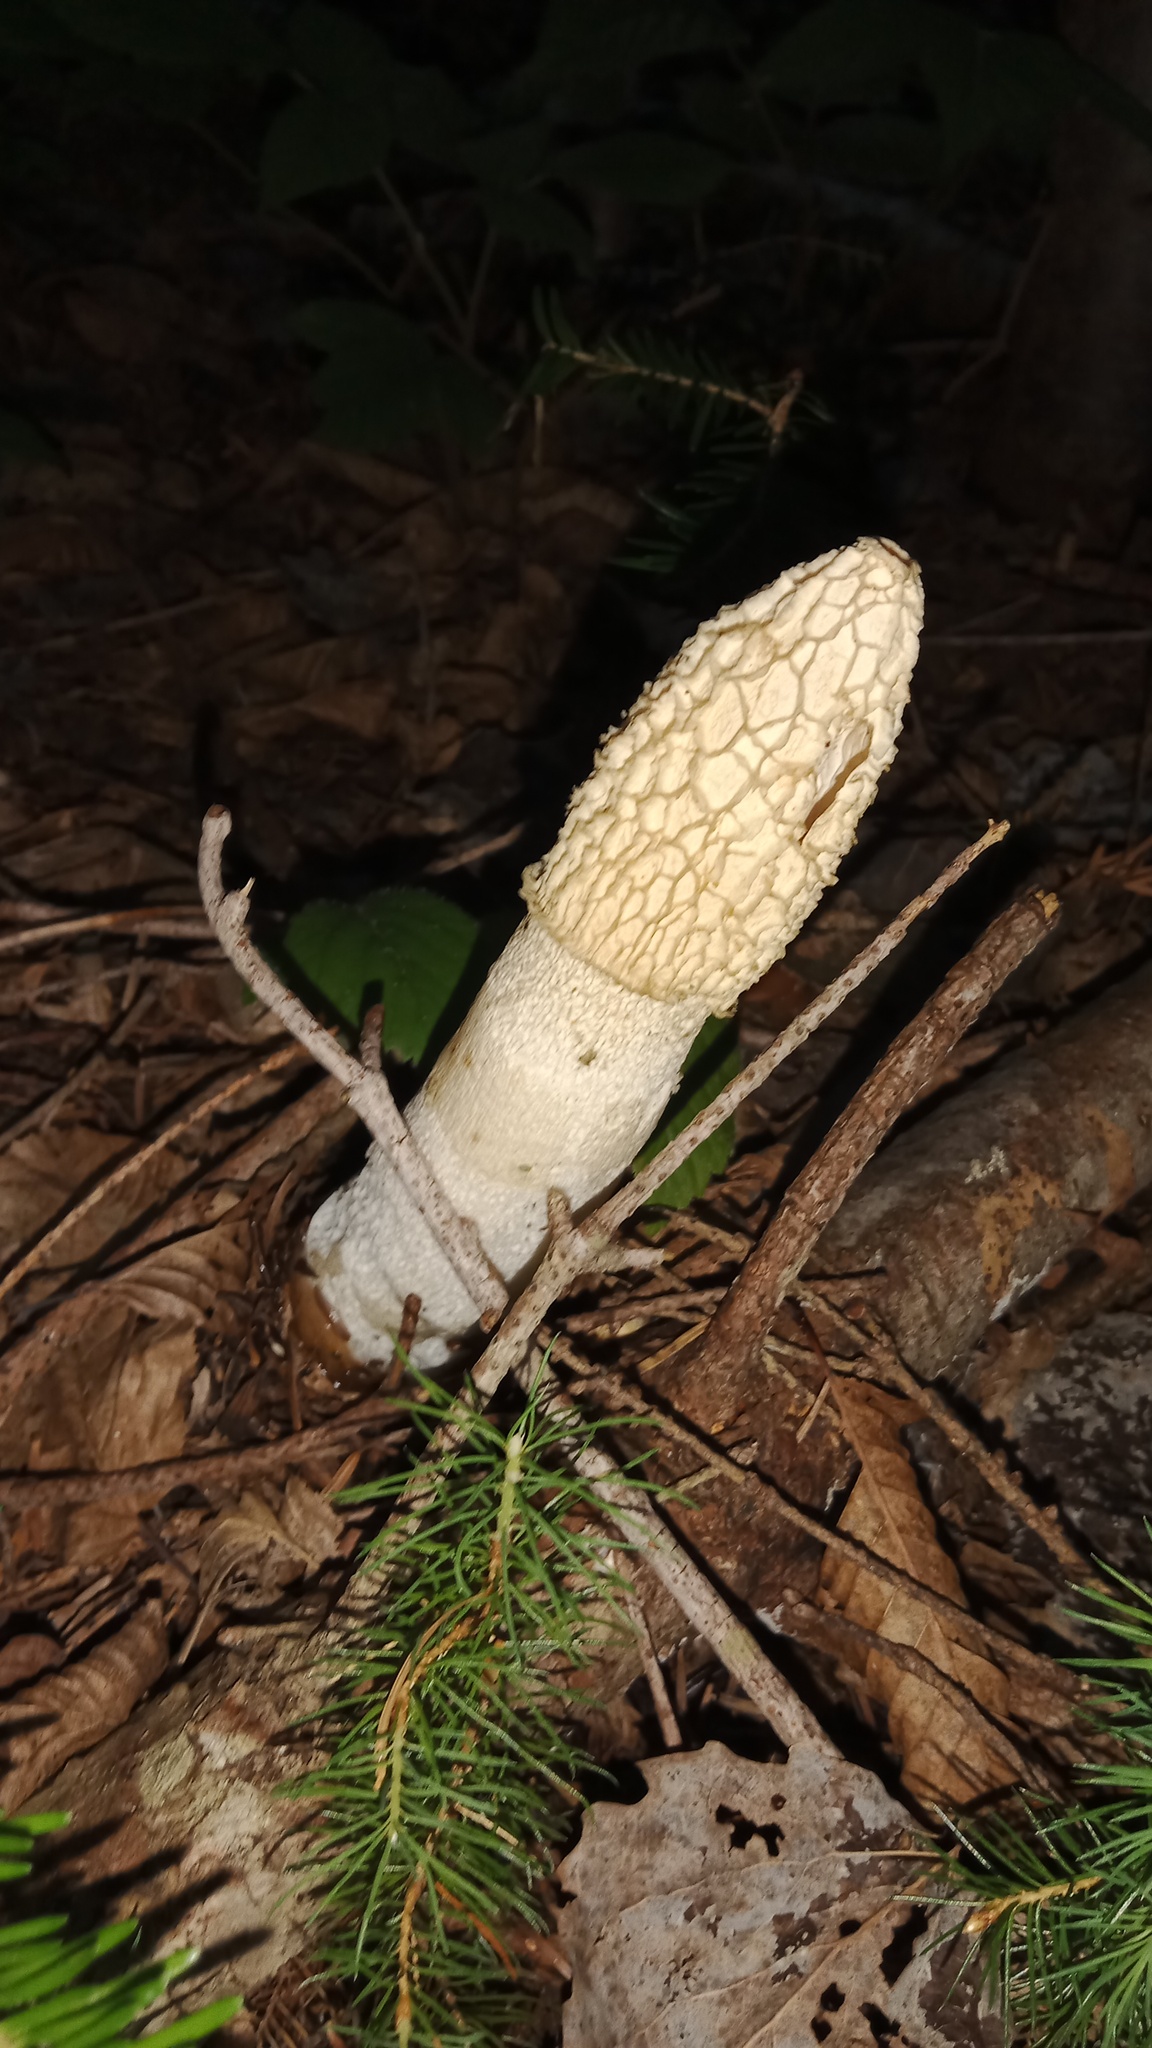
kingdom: Fungi
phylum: Basidiomycota
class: Agaricomycetes
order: Phallales
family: Phallaceae
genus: Phallus
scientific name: Phallus impudicus
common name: Common stinkhorn
